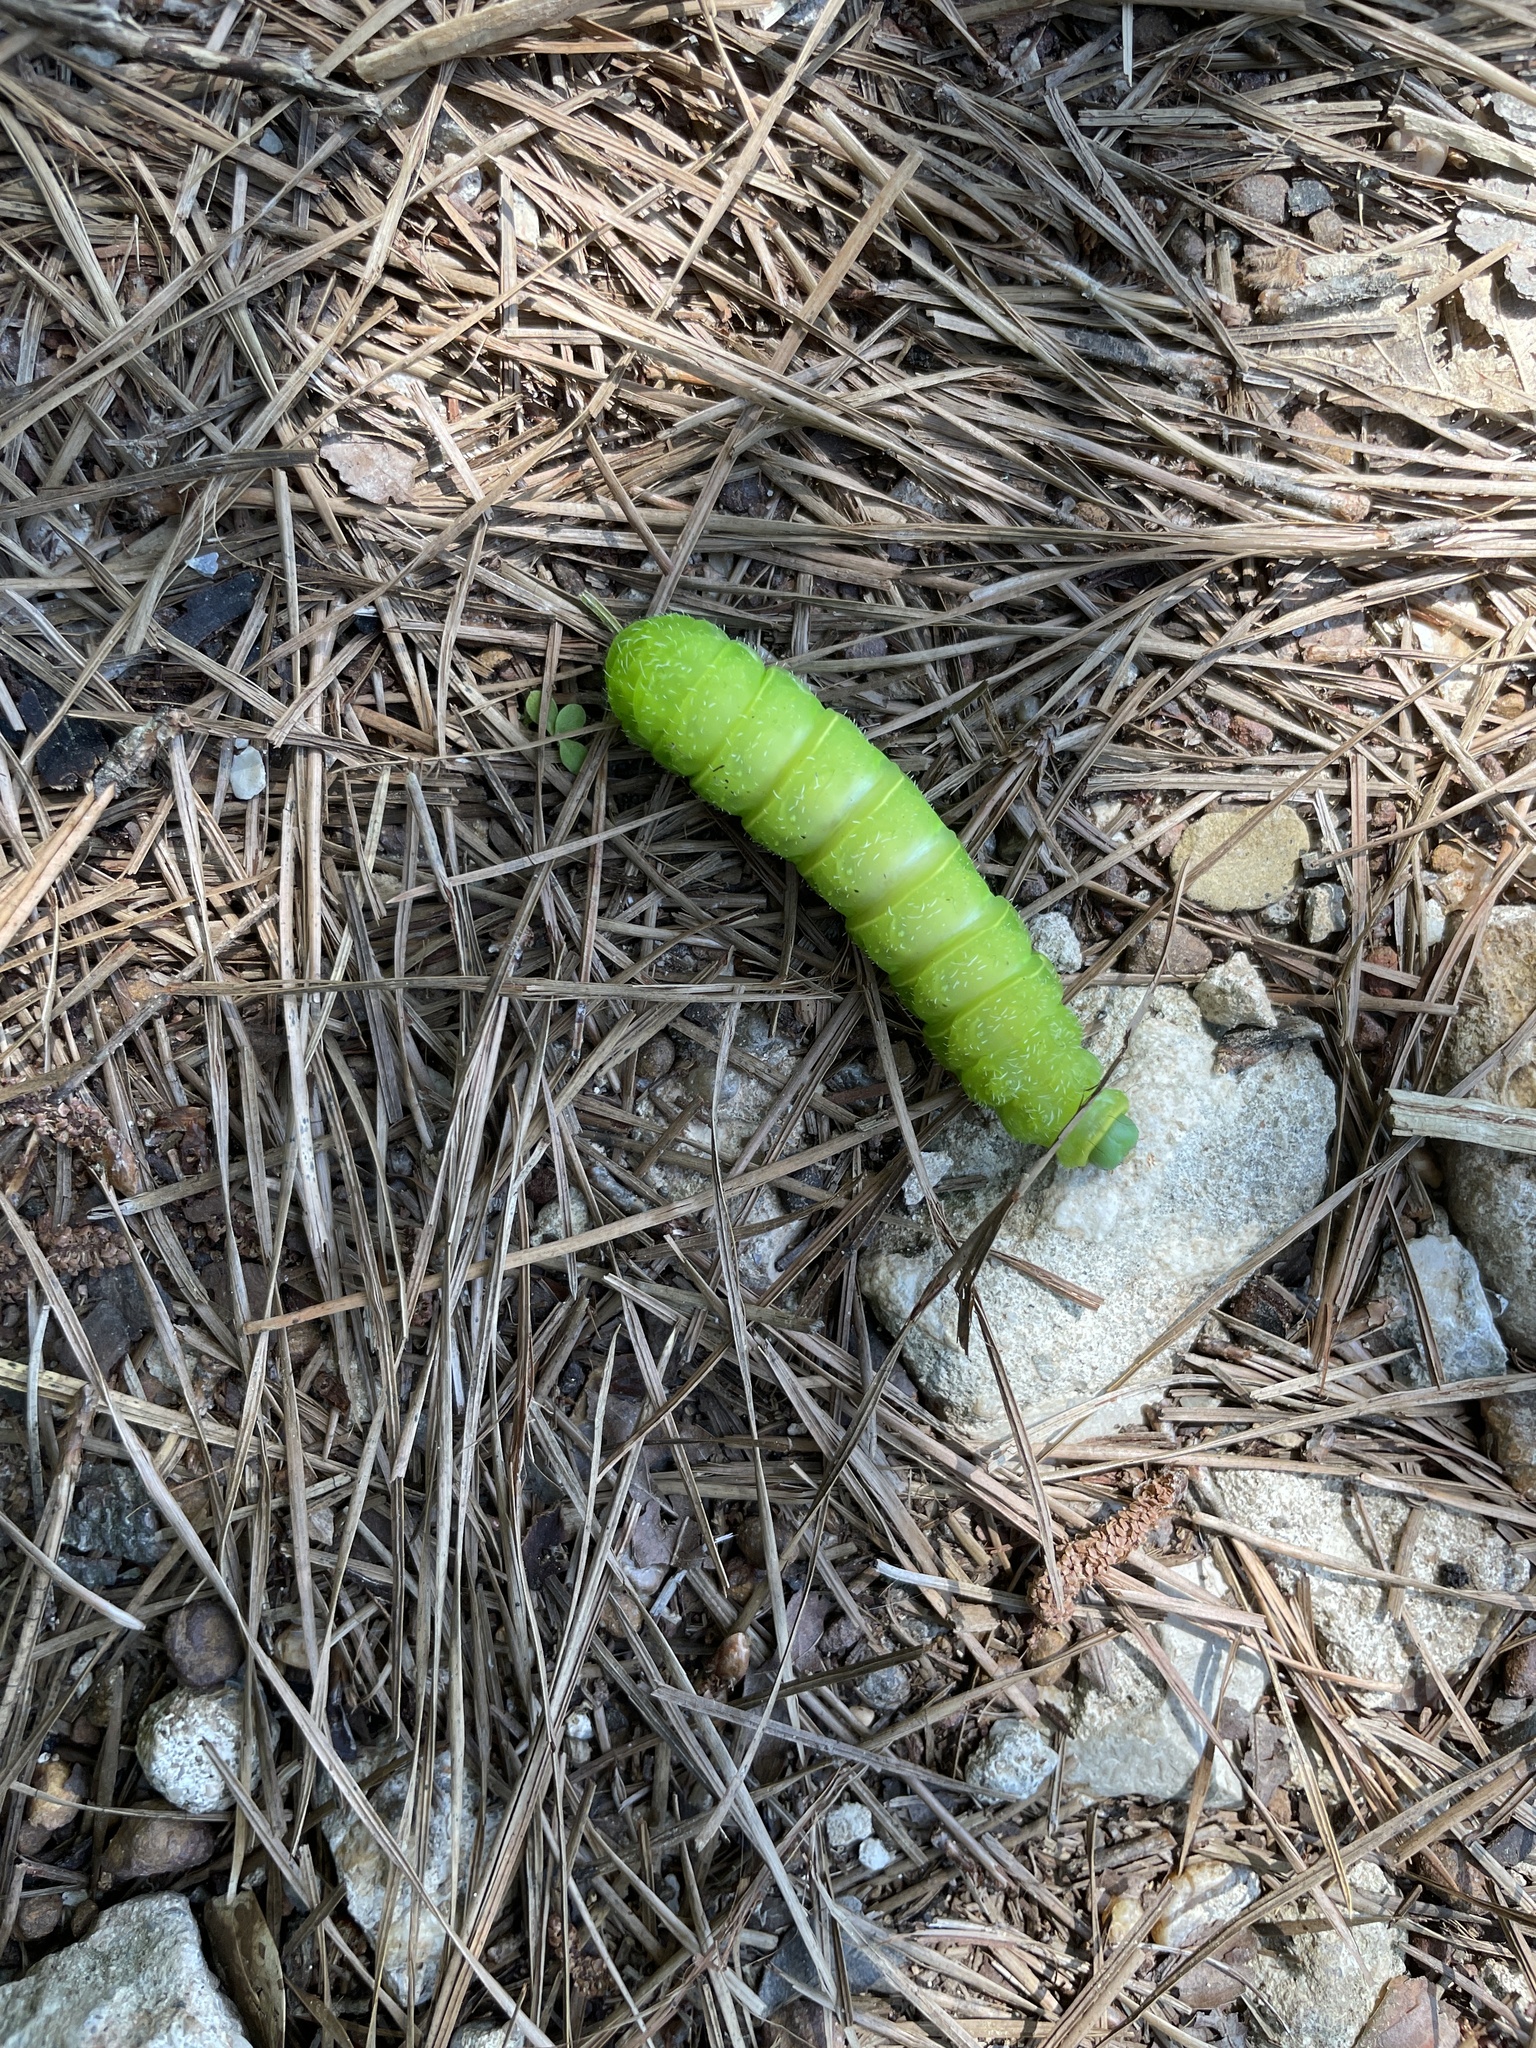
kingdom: Animalia
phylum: Arthropoda
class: Insecta
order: Lepidoptera
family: Saturniidae
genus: Actias
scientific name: Actias luna
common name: Luna moth
